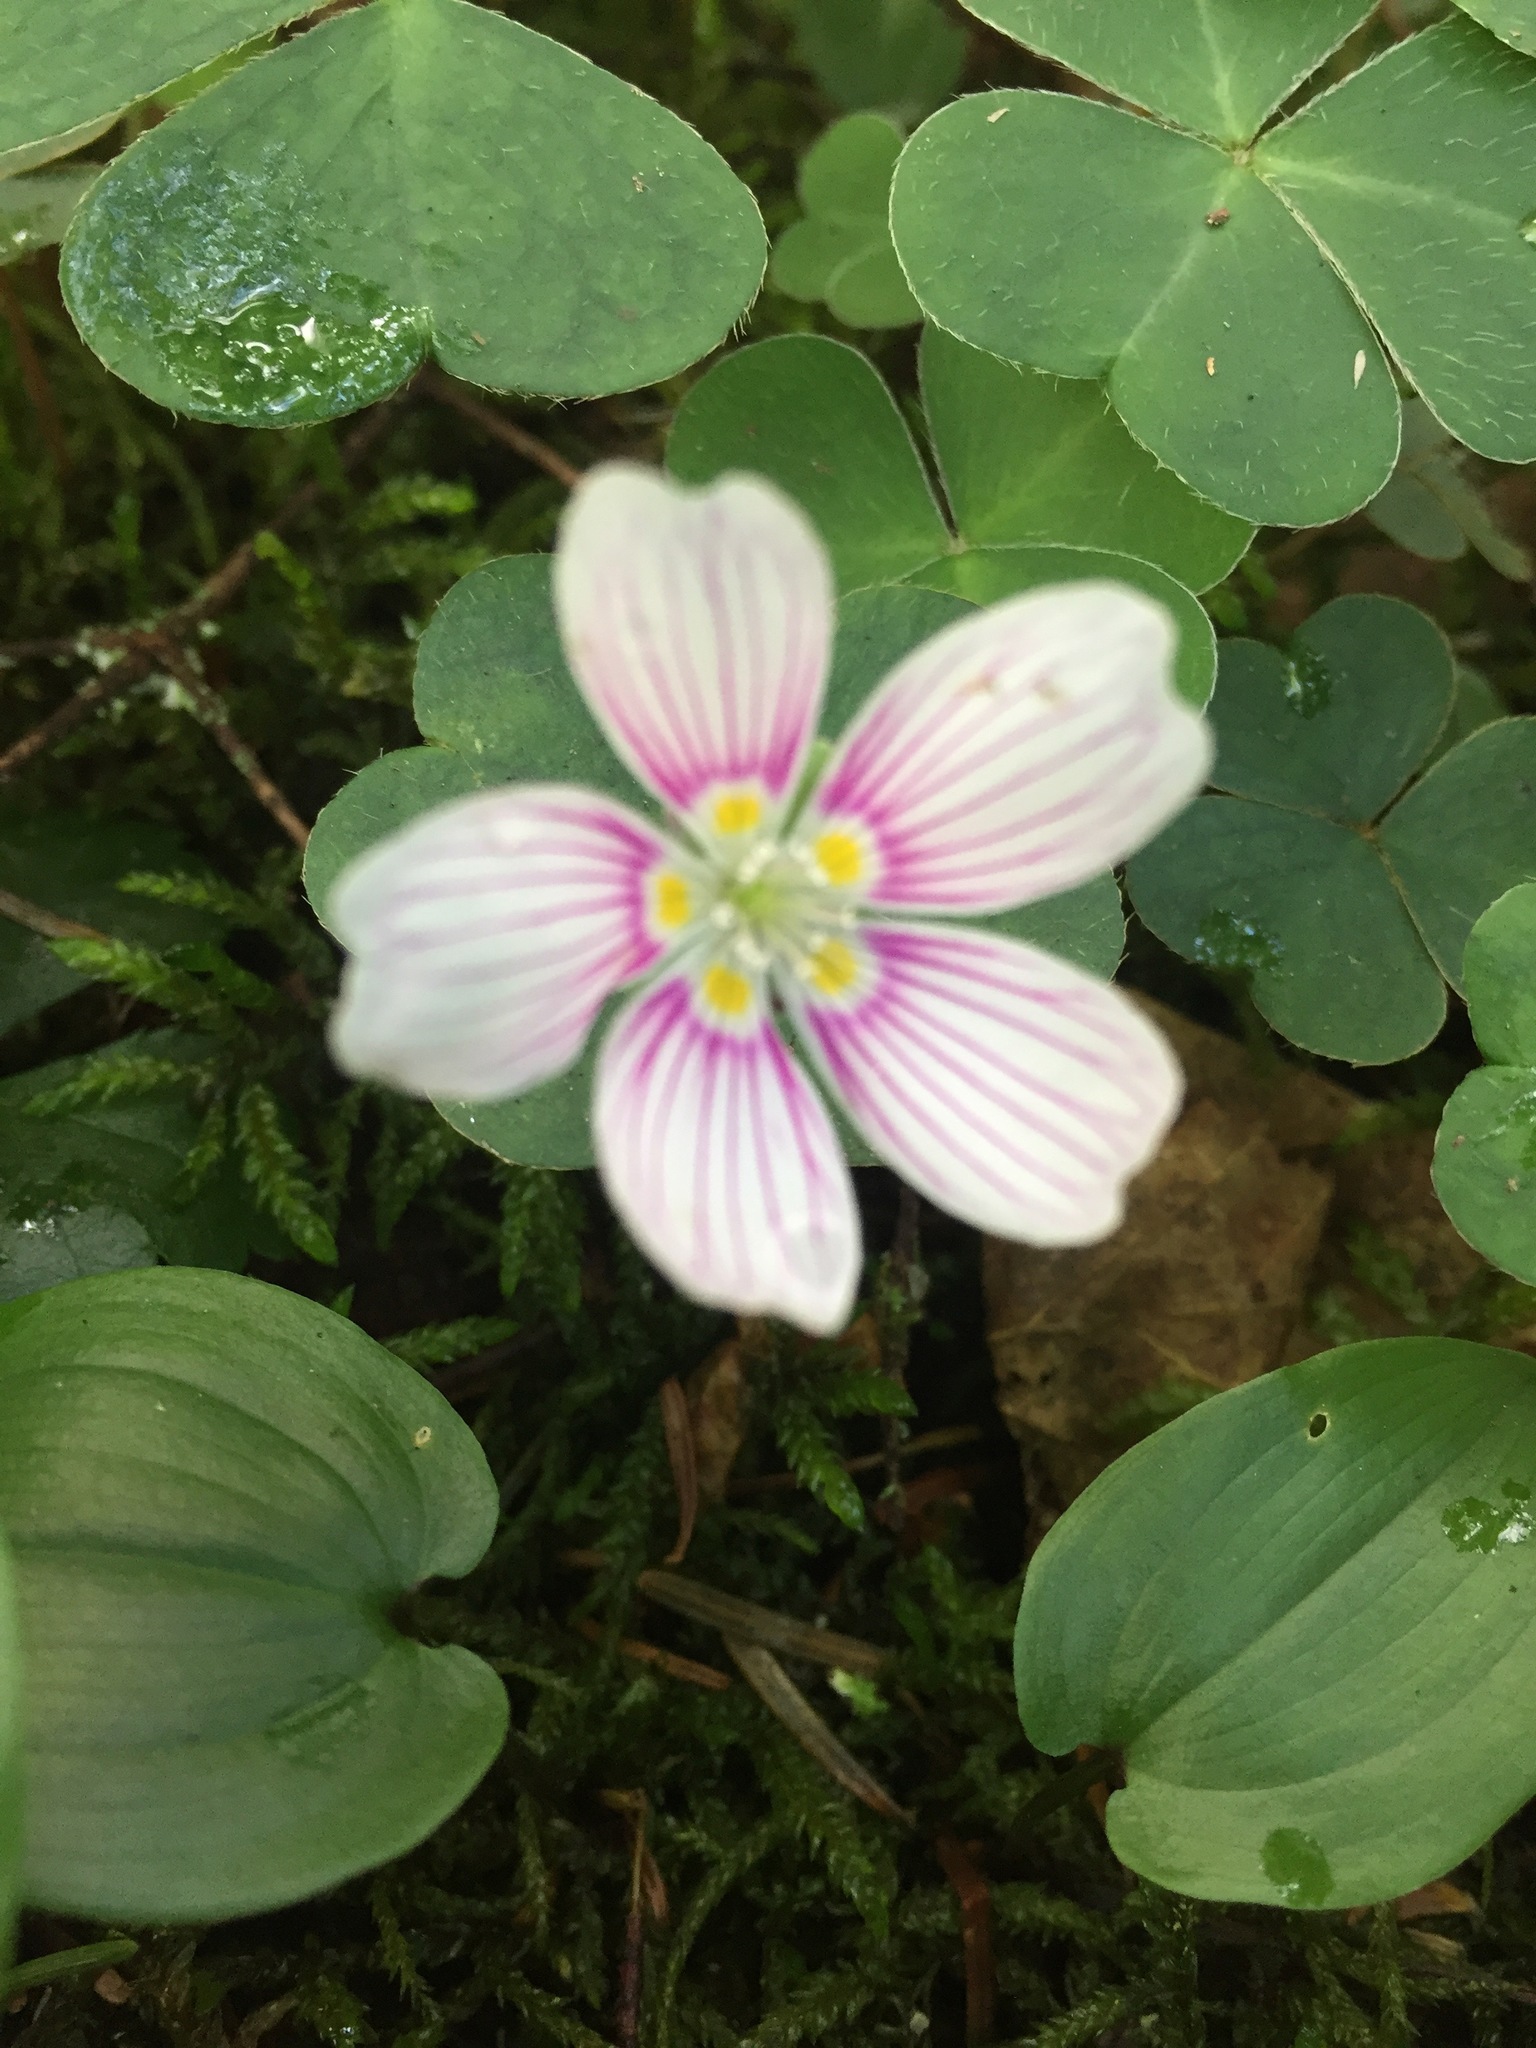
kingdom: Plantae
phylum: Tracheophyta
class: Magnoliopsida
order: Oxalidales
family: Oxalidaceae
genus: Oxalis
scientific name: Oxalis montana
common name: American wood-sorrel
